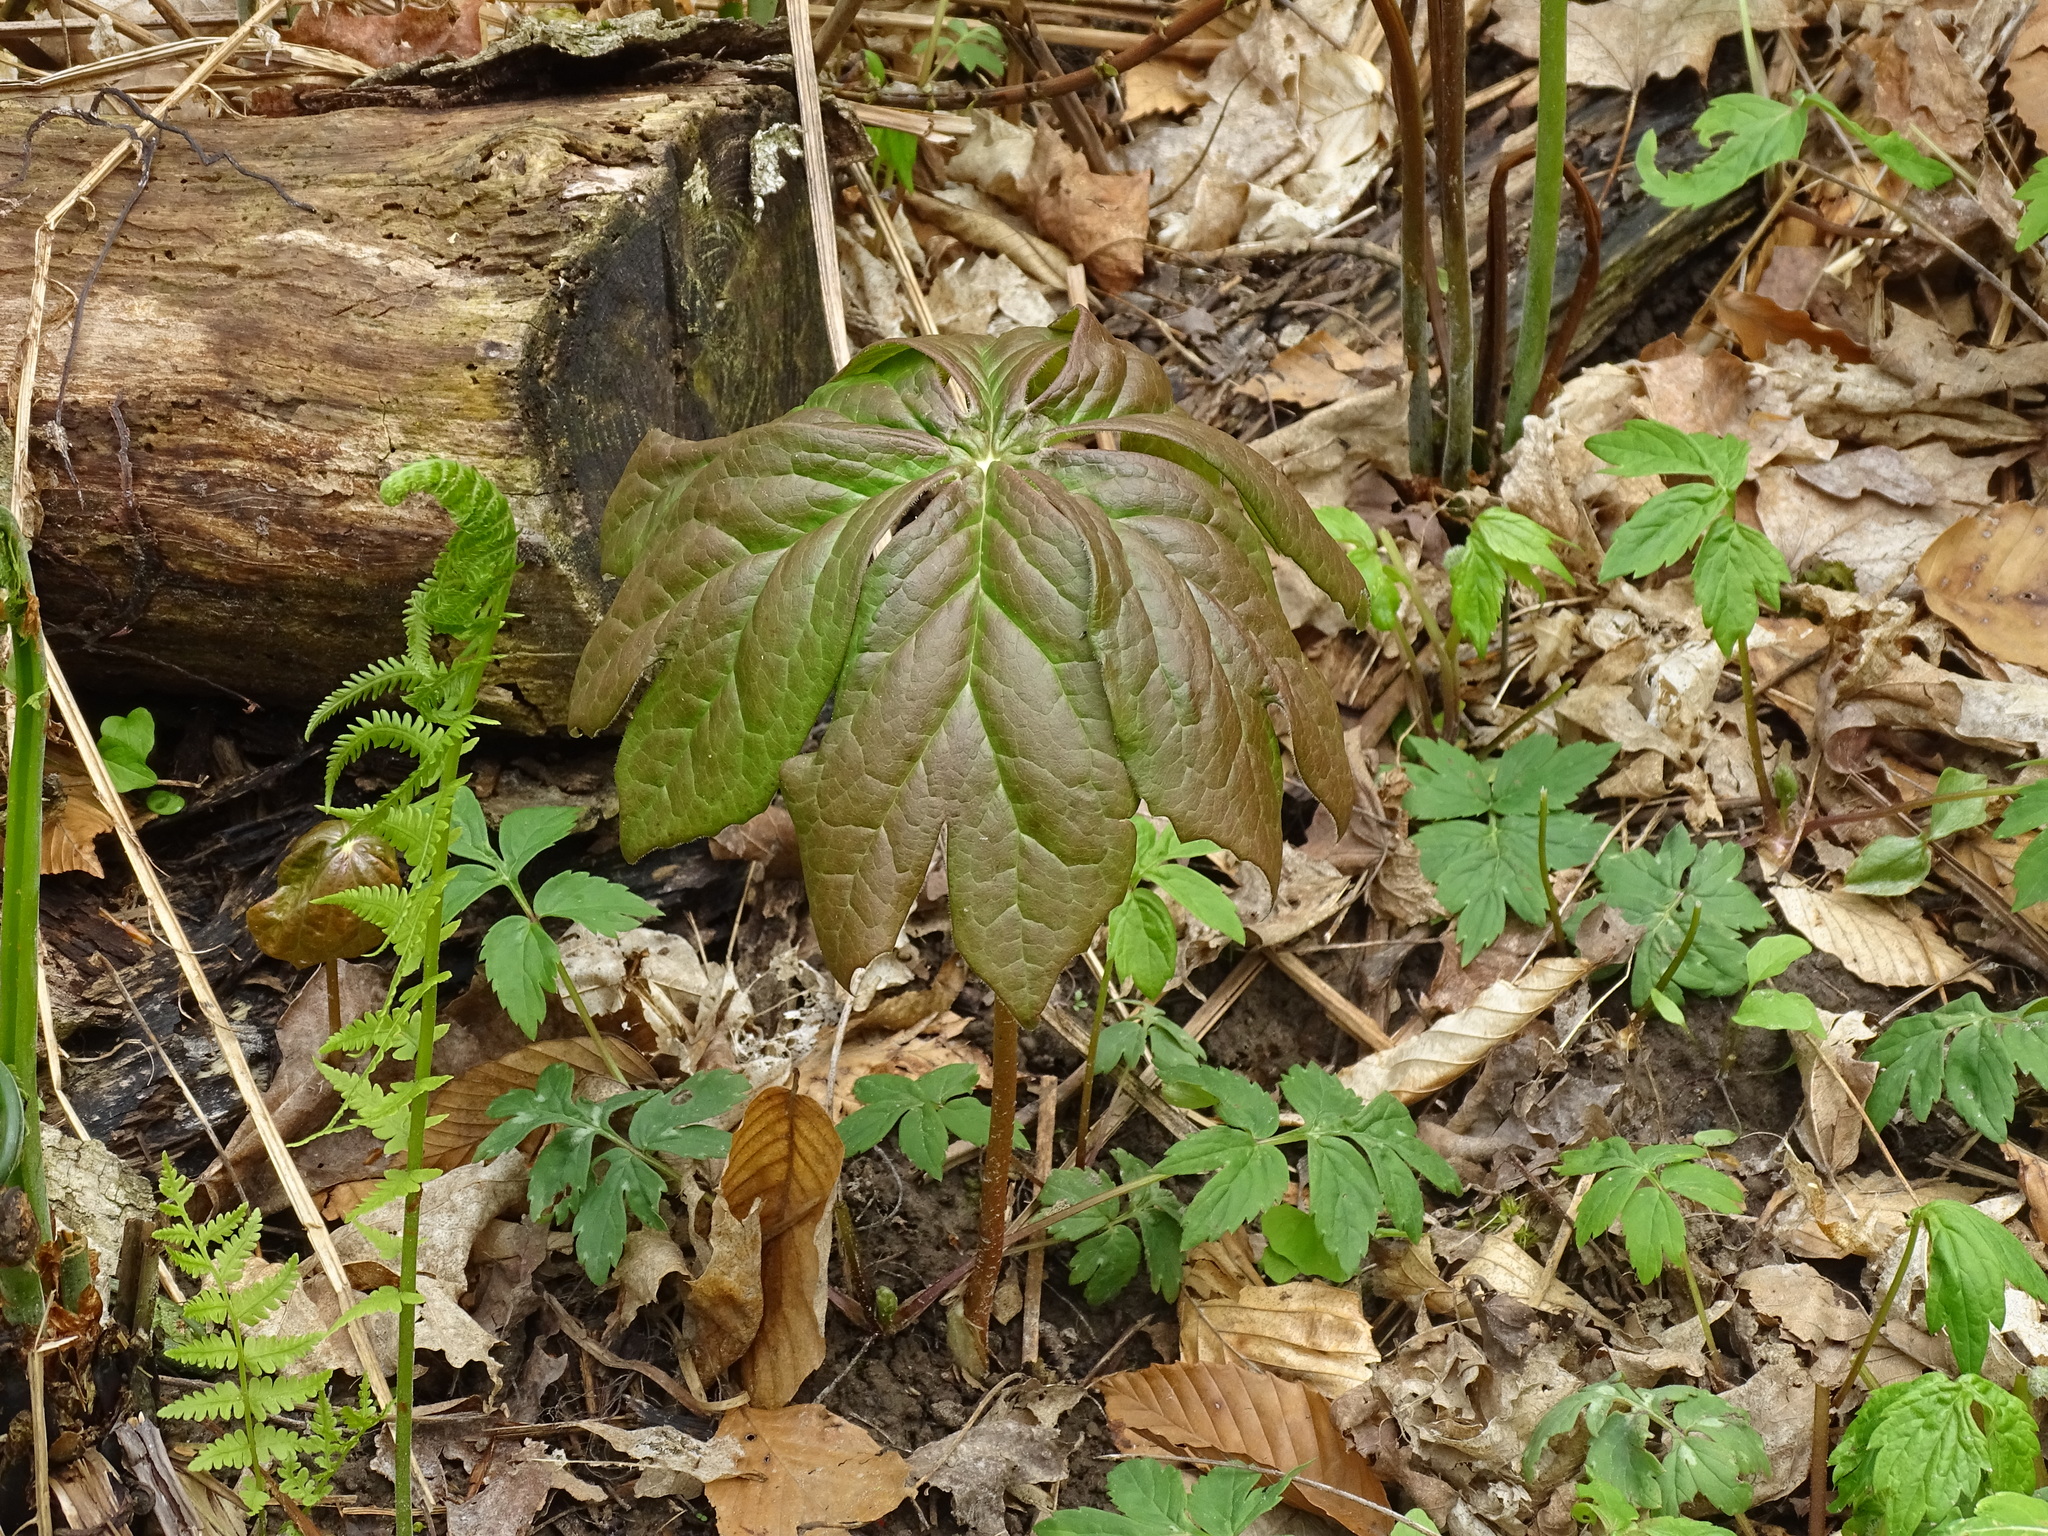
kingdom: Plantae
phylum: Tracheophyta
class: Magnoliopsida
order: Ranunculales
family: Berberidaceae
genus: Podophyllum
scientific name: Podophyllum peltatum
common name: Wild mandrake
